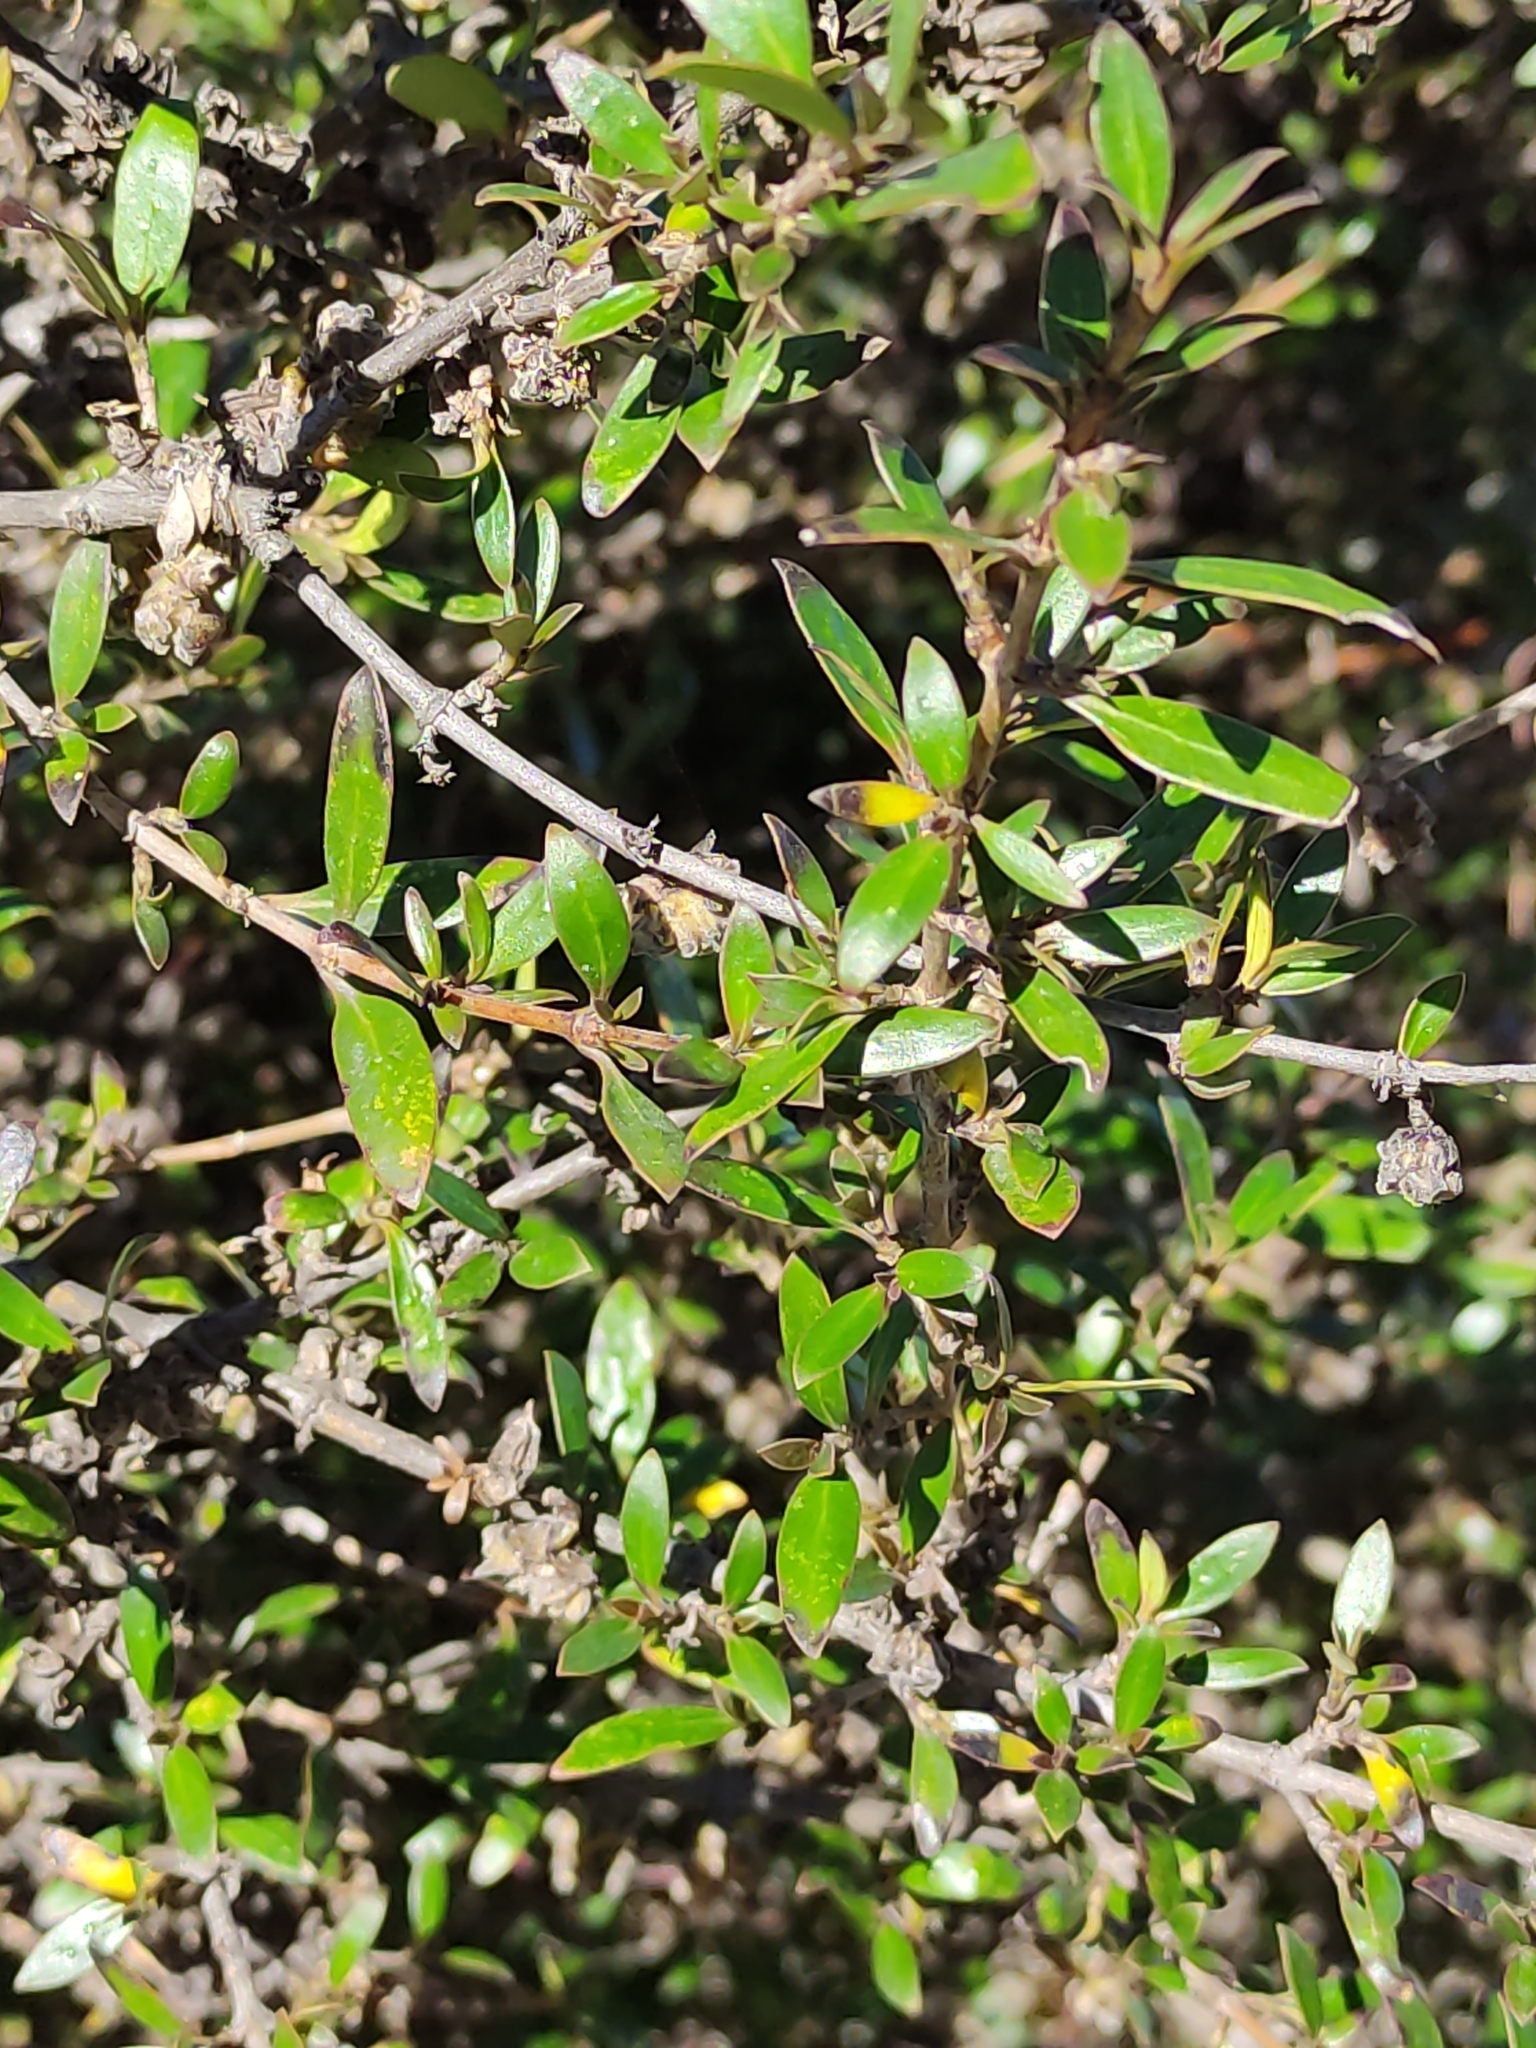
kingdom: Plantae
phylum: Tracheophyta
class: Magnoliopsida
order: Gentianales
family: Rubiaceae
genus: Coprosma
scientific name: Coprosma propinqua
